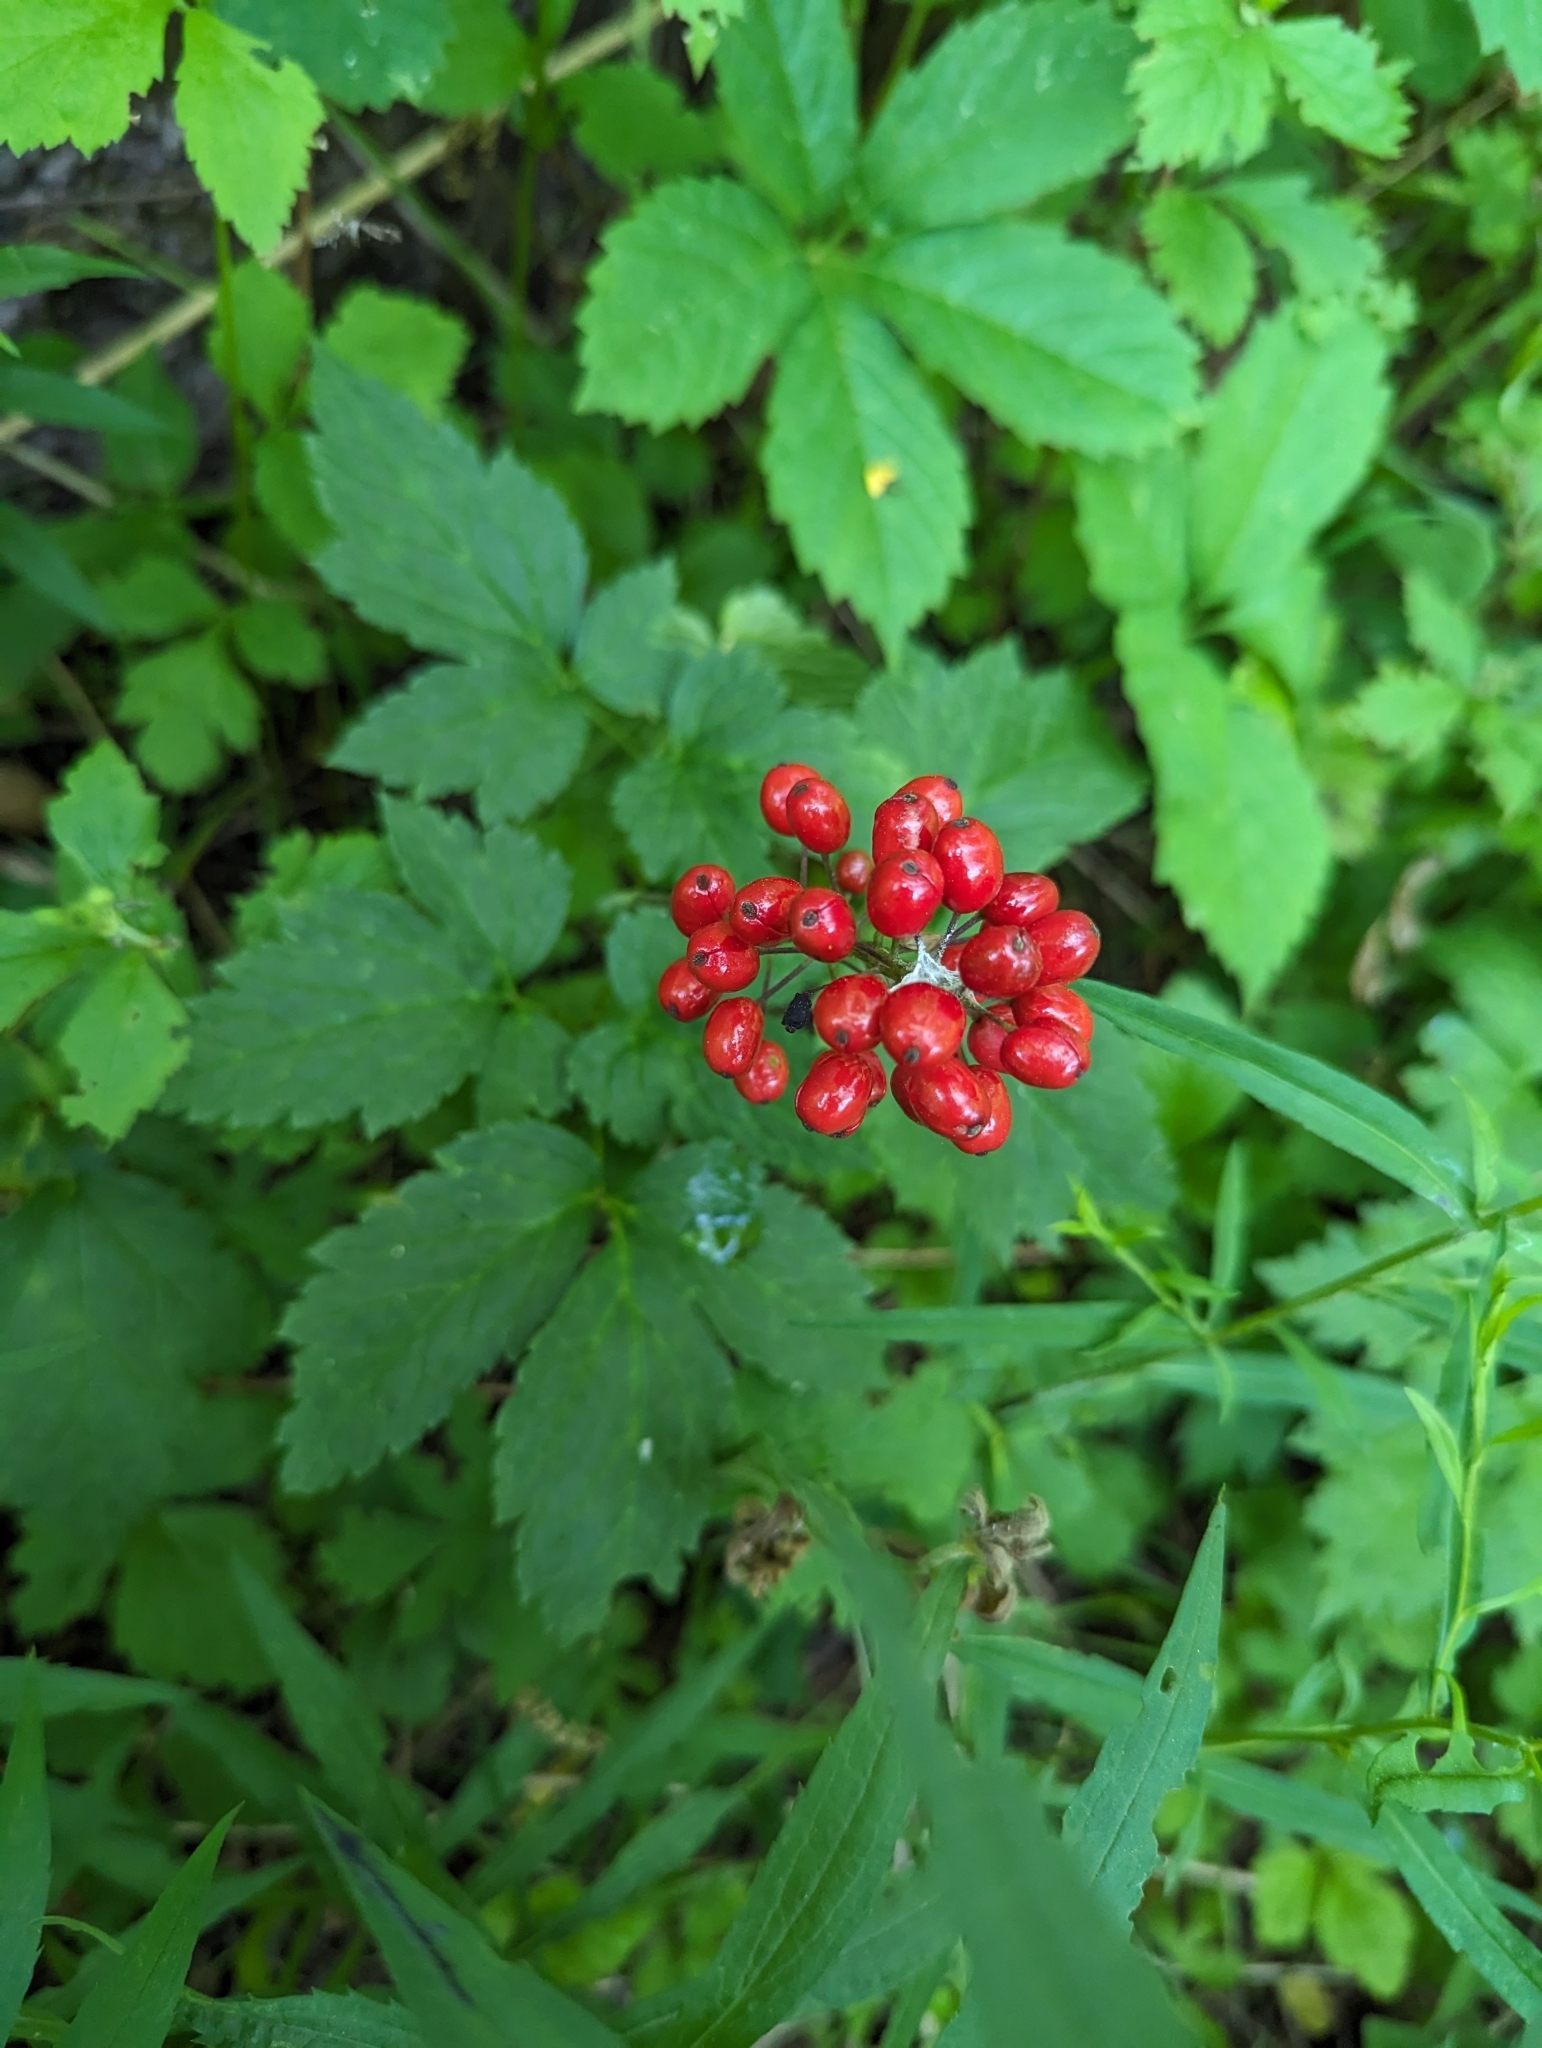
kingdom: Plantae
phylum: Tracheophyta
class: Magnoliopsida
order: Ranunculales
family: Ranunculaceae
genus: Actaea
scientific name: Actaea rubra
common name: Red baneberry
